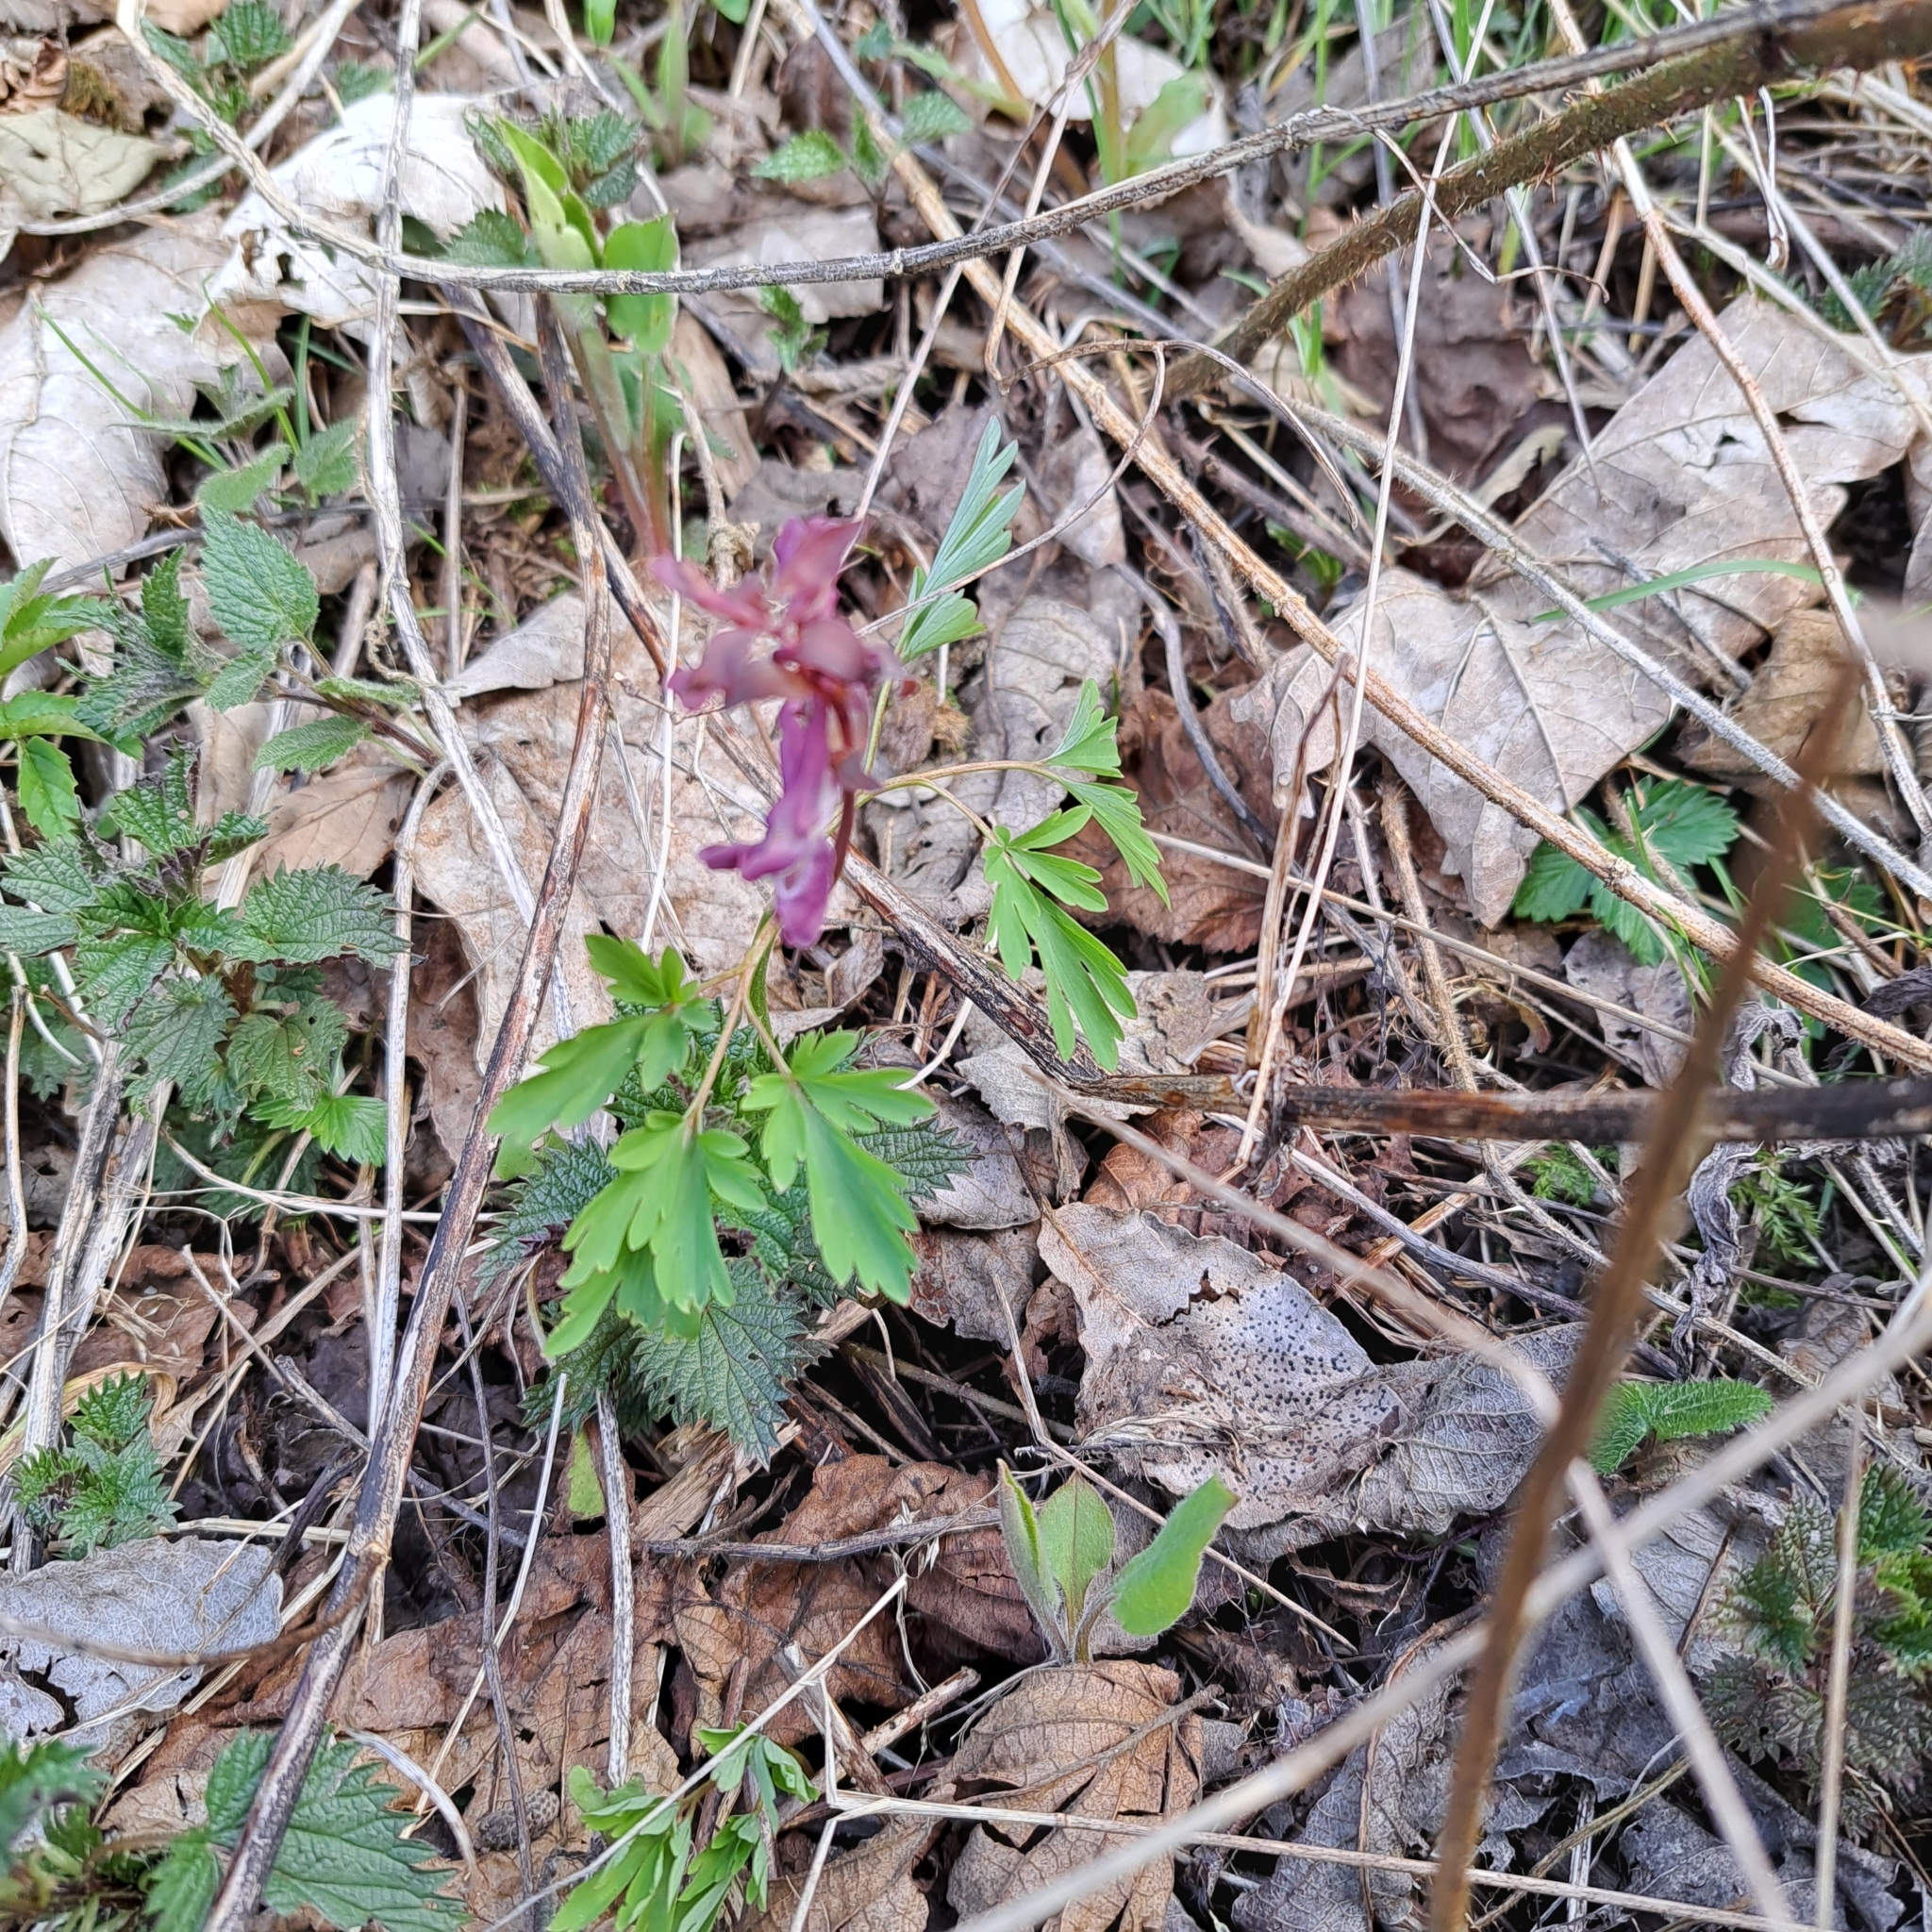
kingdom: Plantae
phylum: Tracheophyta
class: Magnoliopsida
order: Ranunculales
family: Papaveraceae
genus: Corydalis
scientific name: Corydalis cava
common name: Hollowroot
